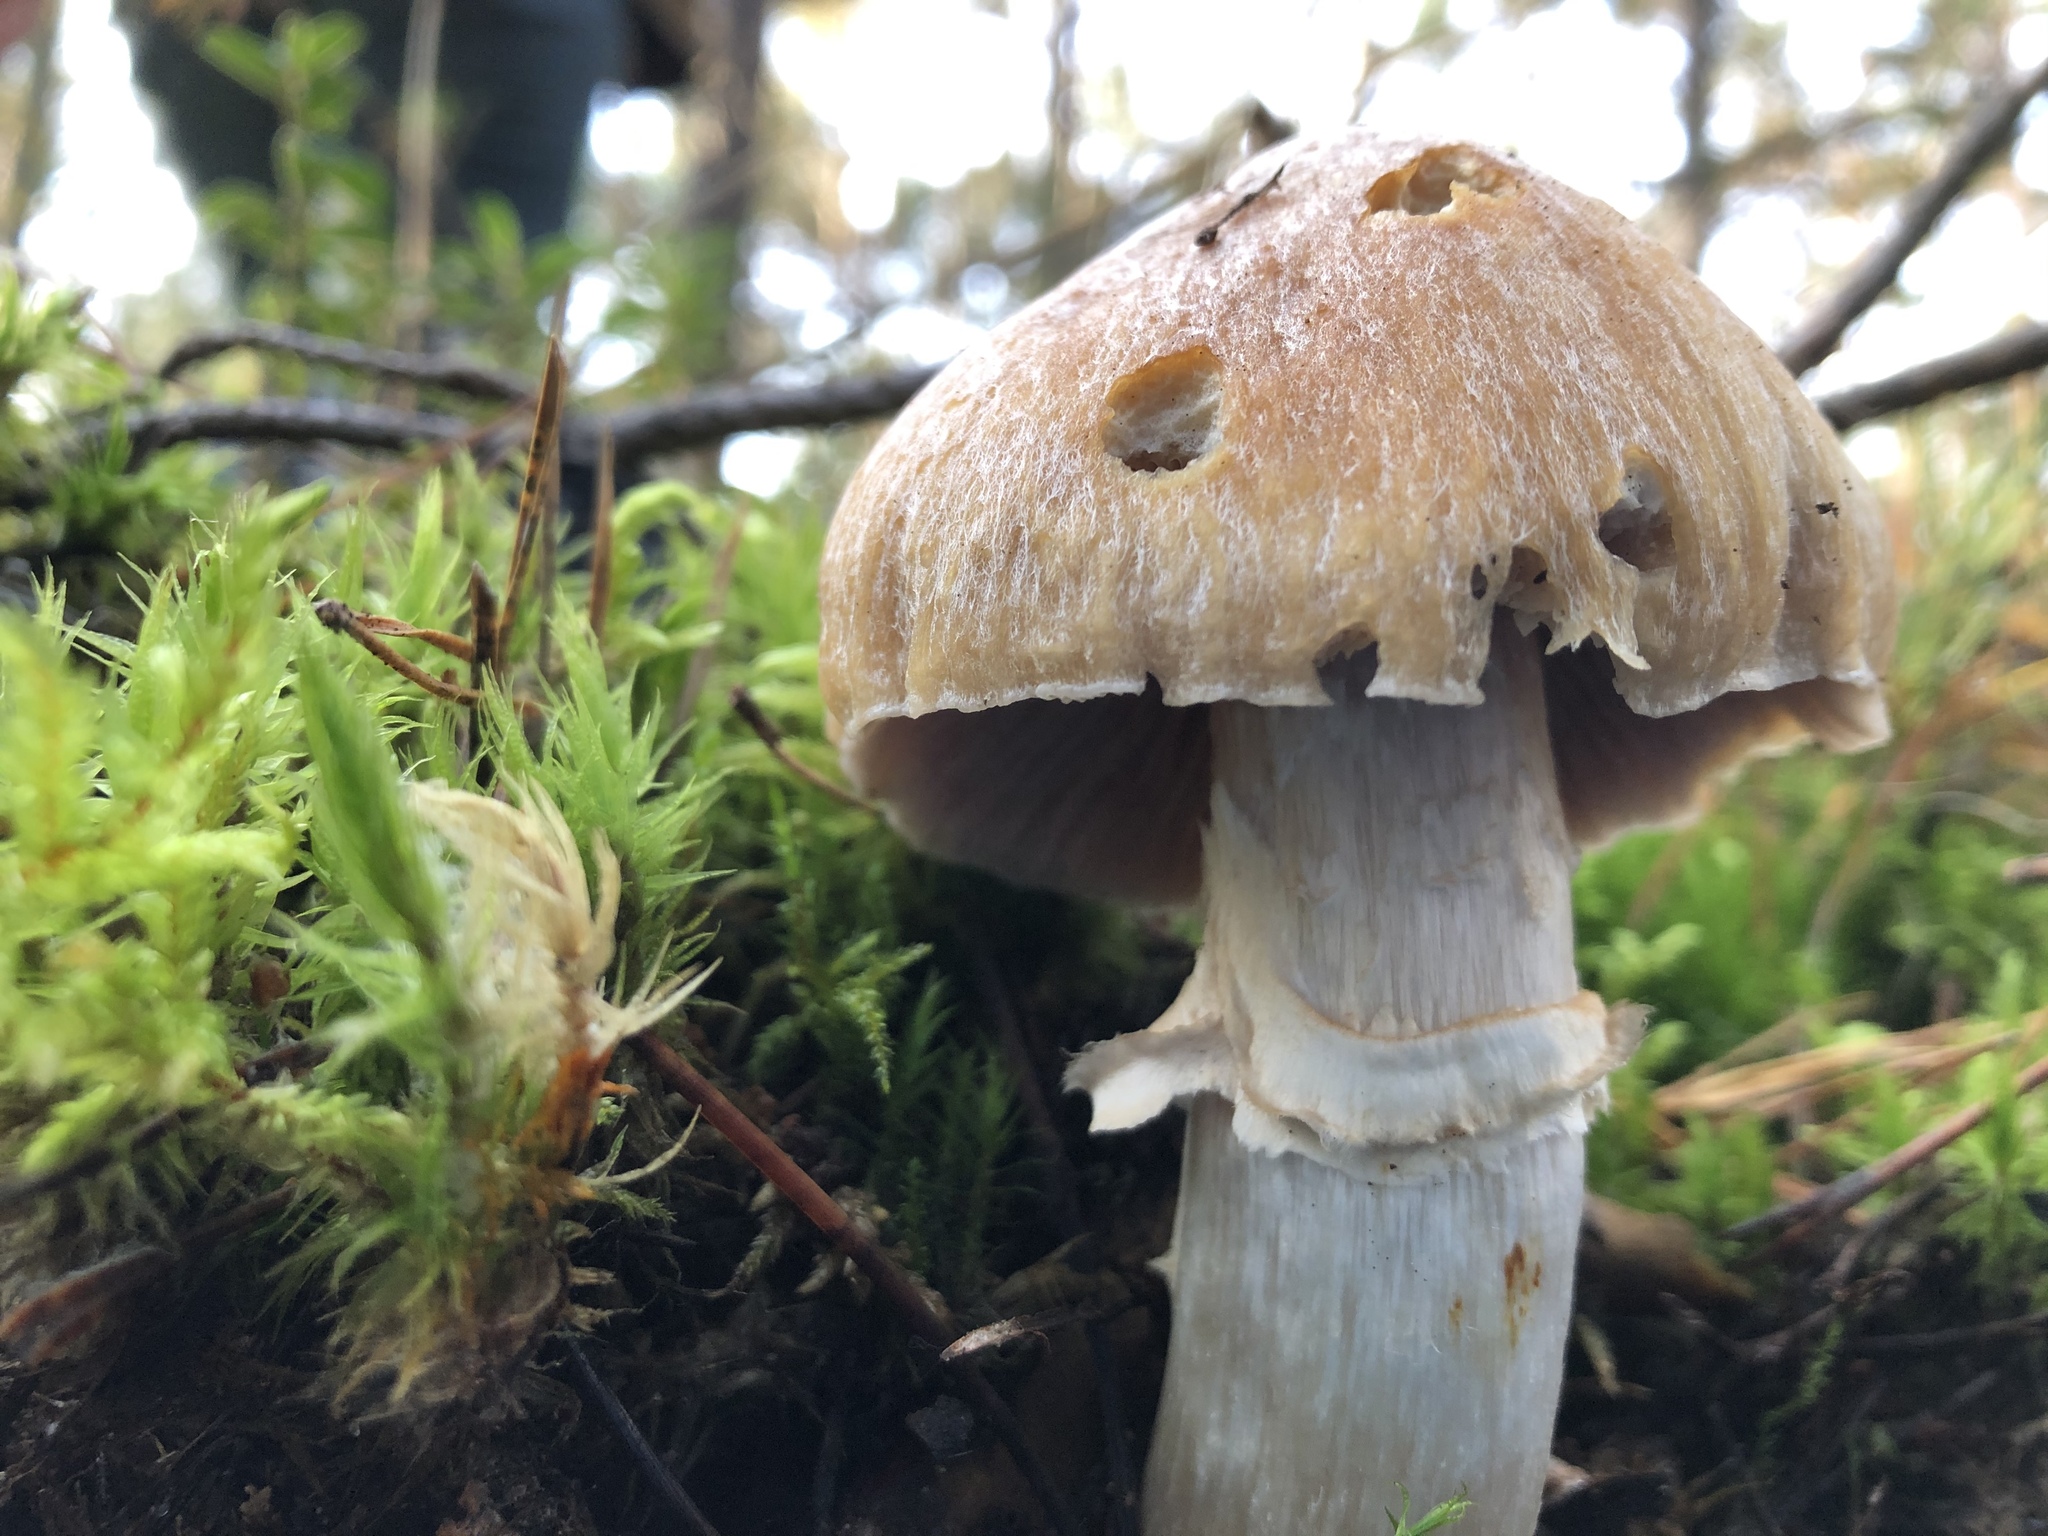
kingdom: Fungi
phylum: Basidiomycota
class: Agaricomycetes
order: Agaricales
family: Cortinariaceae
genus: Cortinarius
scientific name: Cortinarius caperatus
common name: The gypsy
